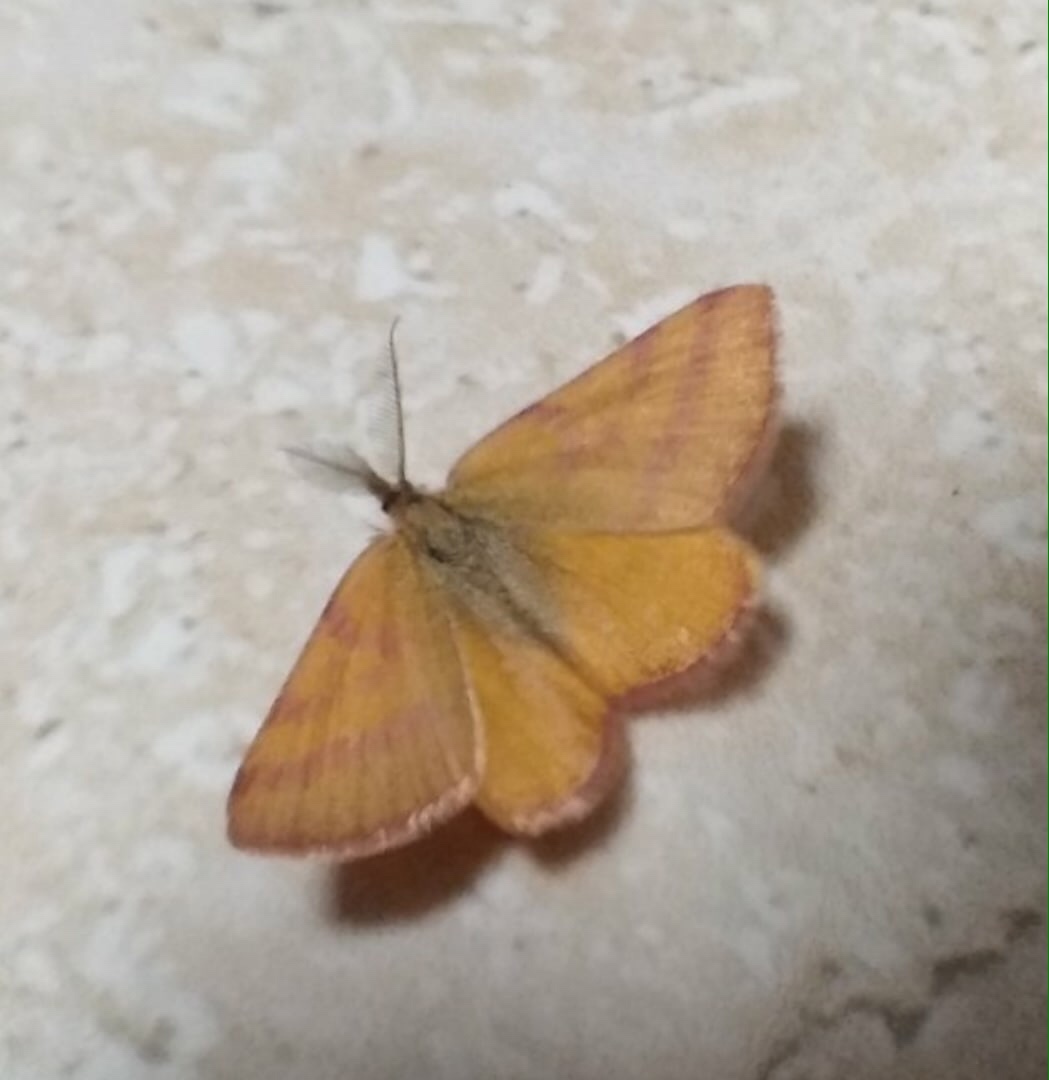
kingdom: Animalia
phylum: Arthropoda
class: Insecta
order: Lepidoptera
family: Geometridae
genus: Lythria
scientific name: Lythria purpuraria
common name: Purple-barred yellow
